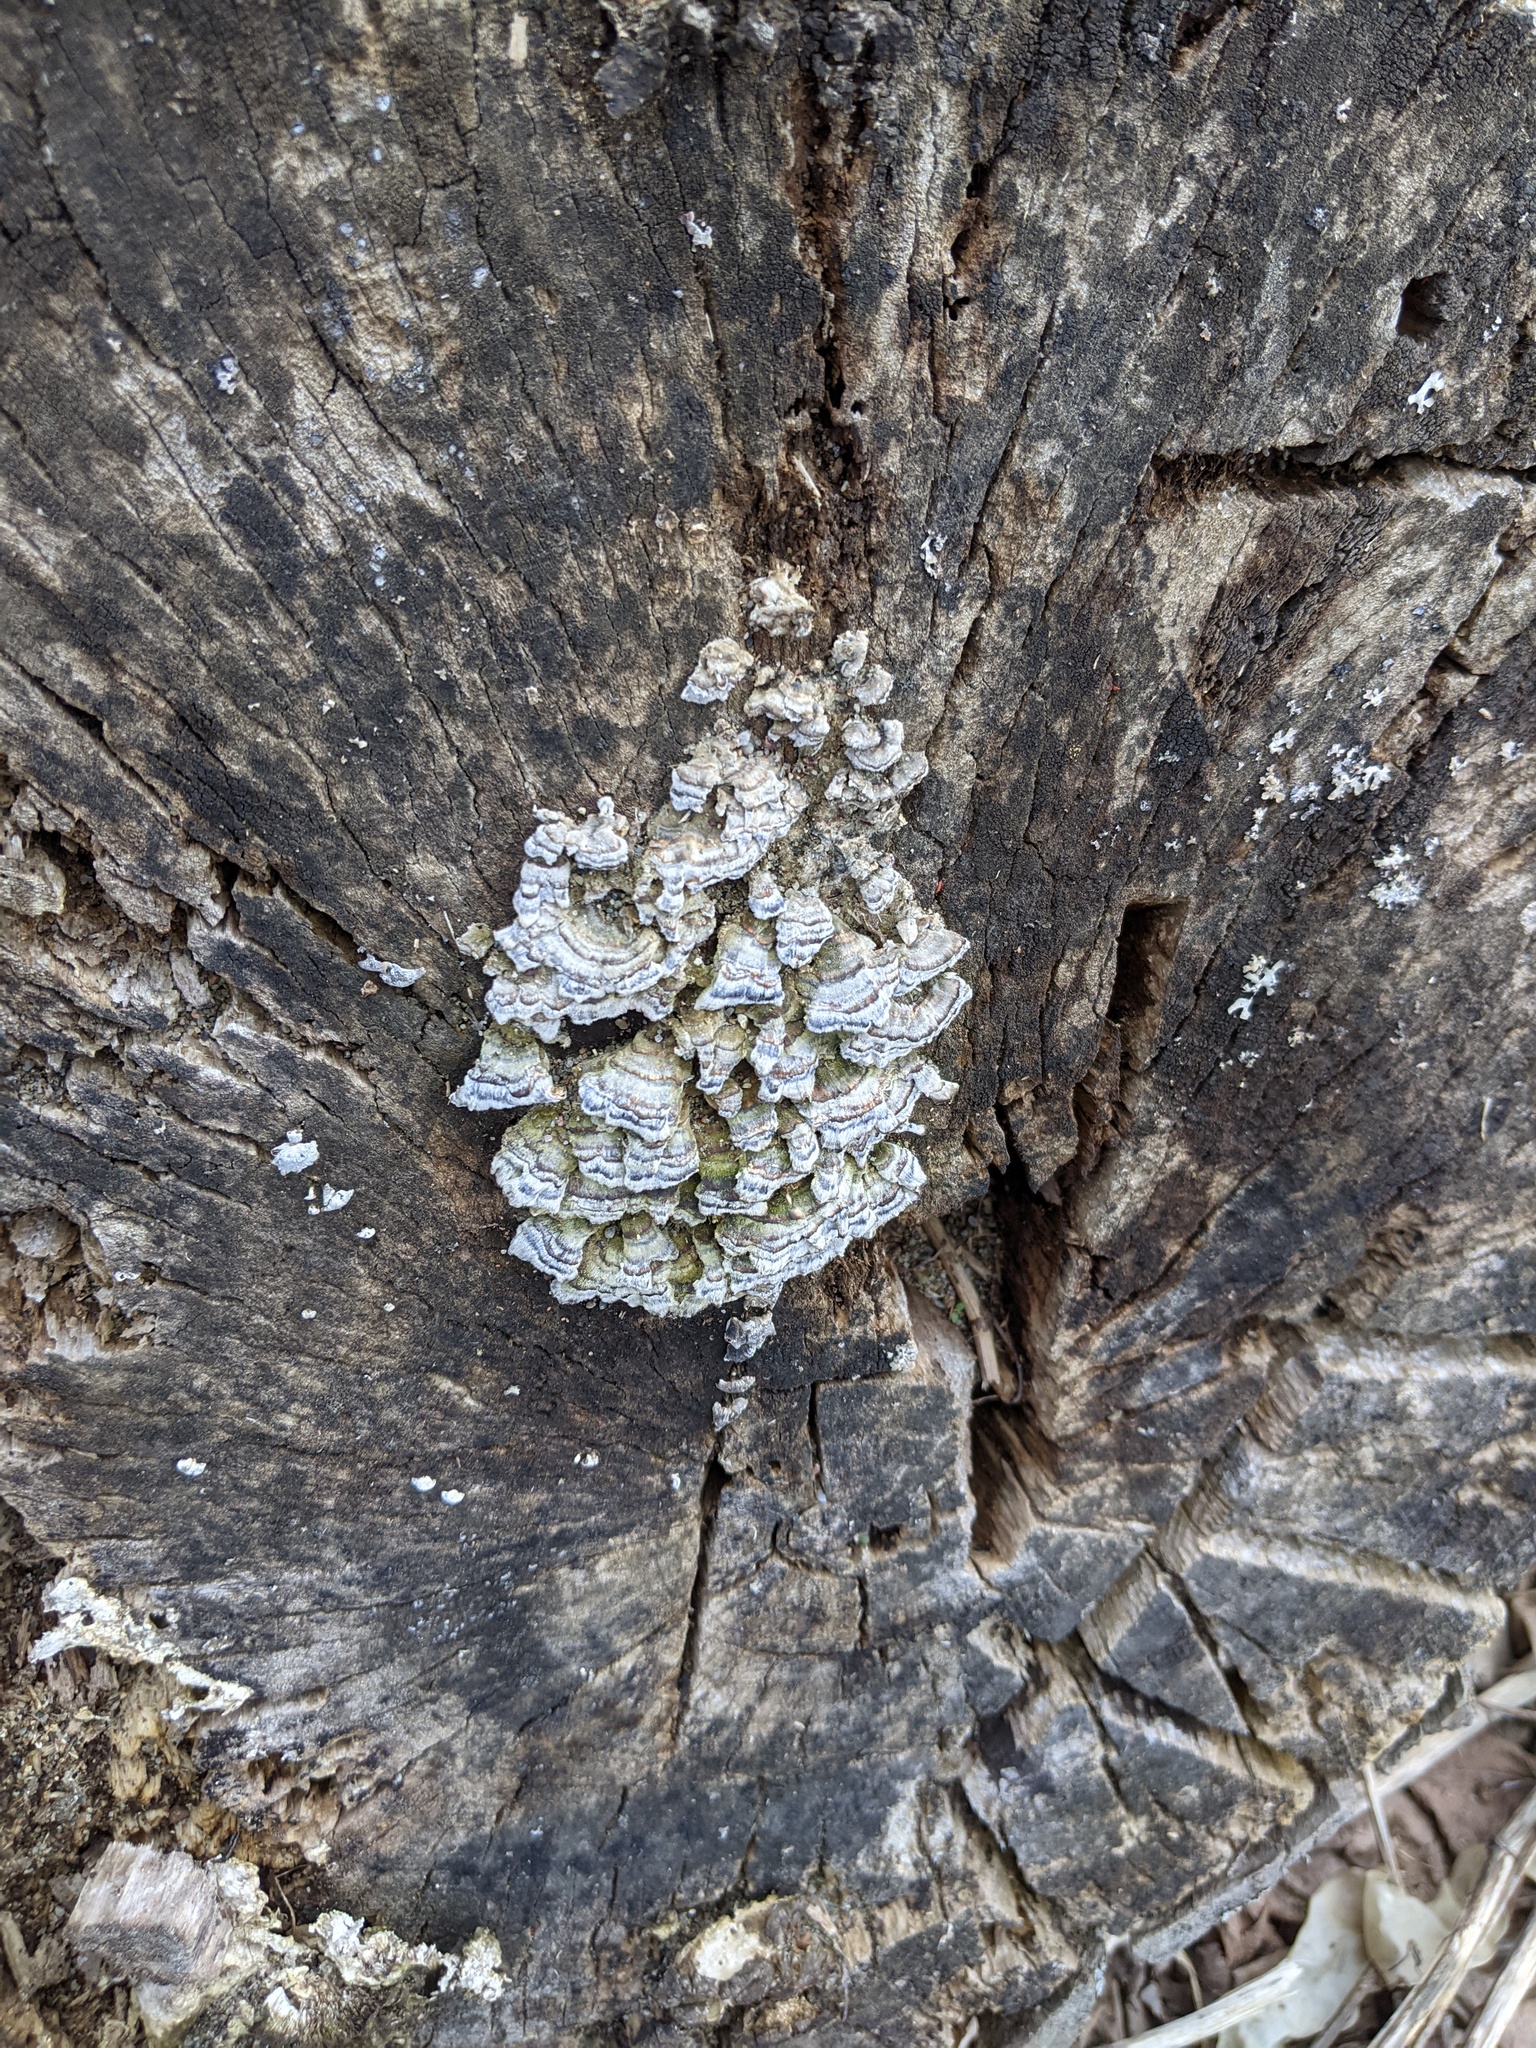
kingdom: Fungi
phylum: Basidiomycota
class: Agaricomycetes
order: Polyporales
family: Polyporaceae
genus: Trametes
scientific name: Trametes versicolor
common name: Turkeytail
